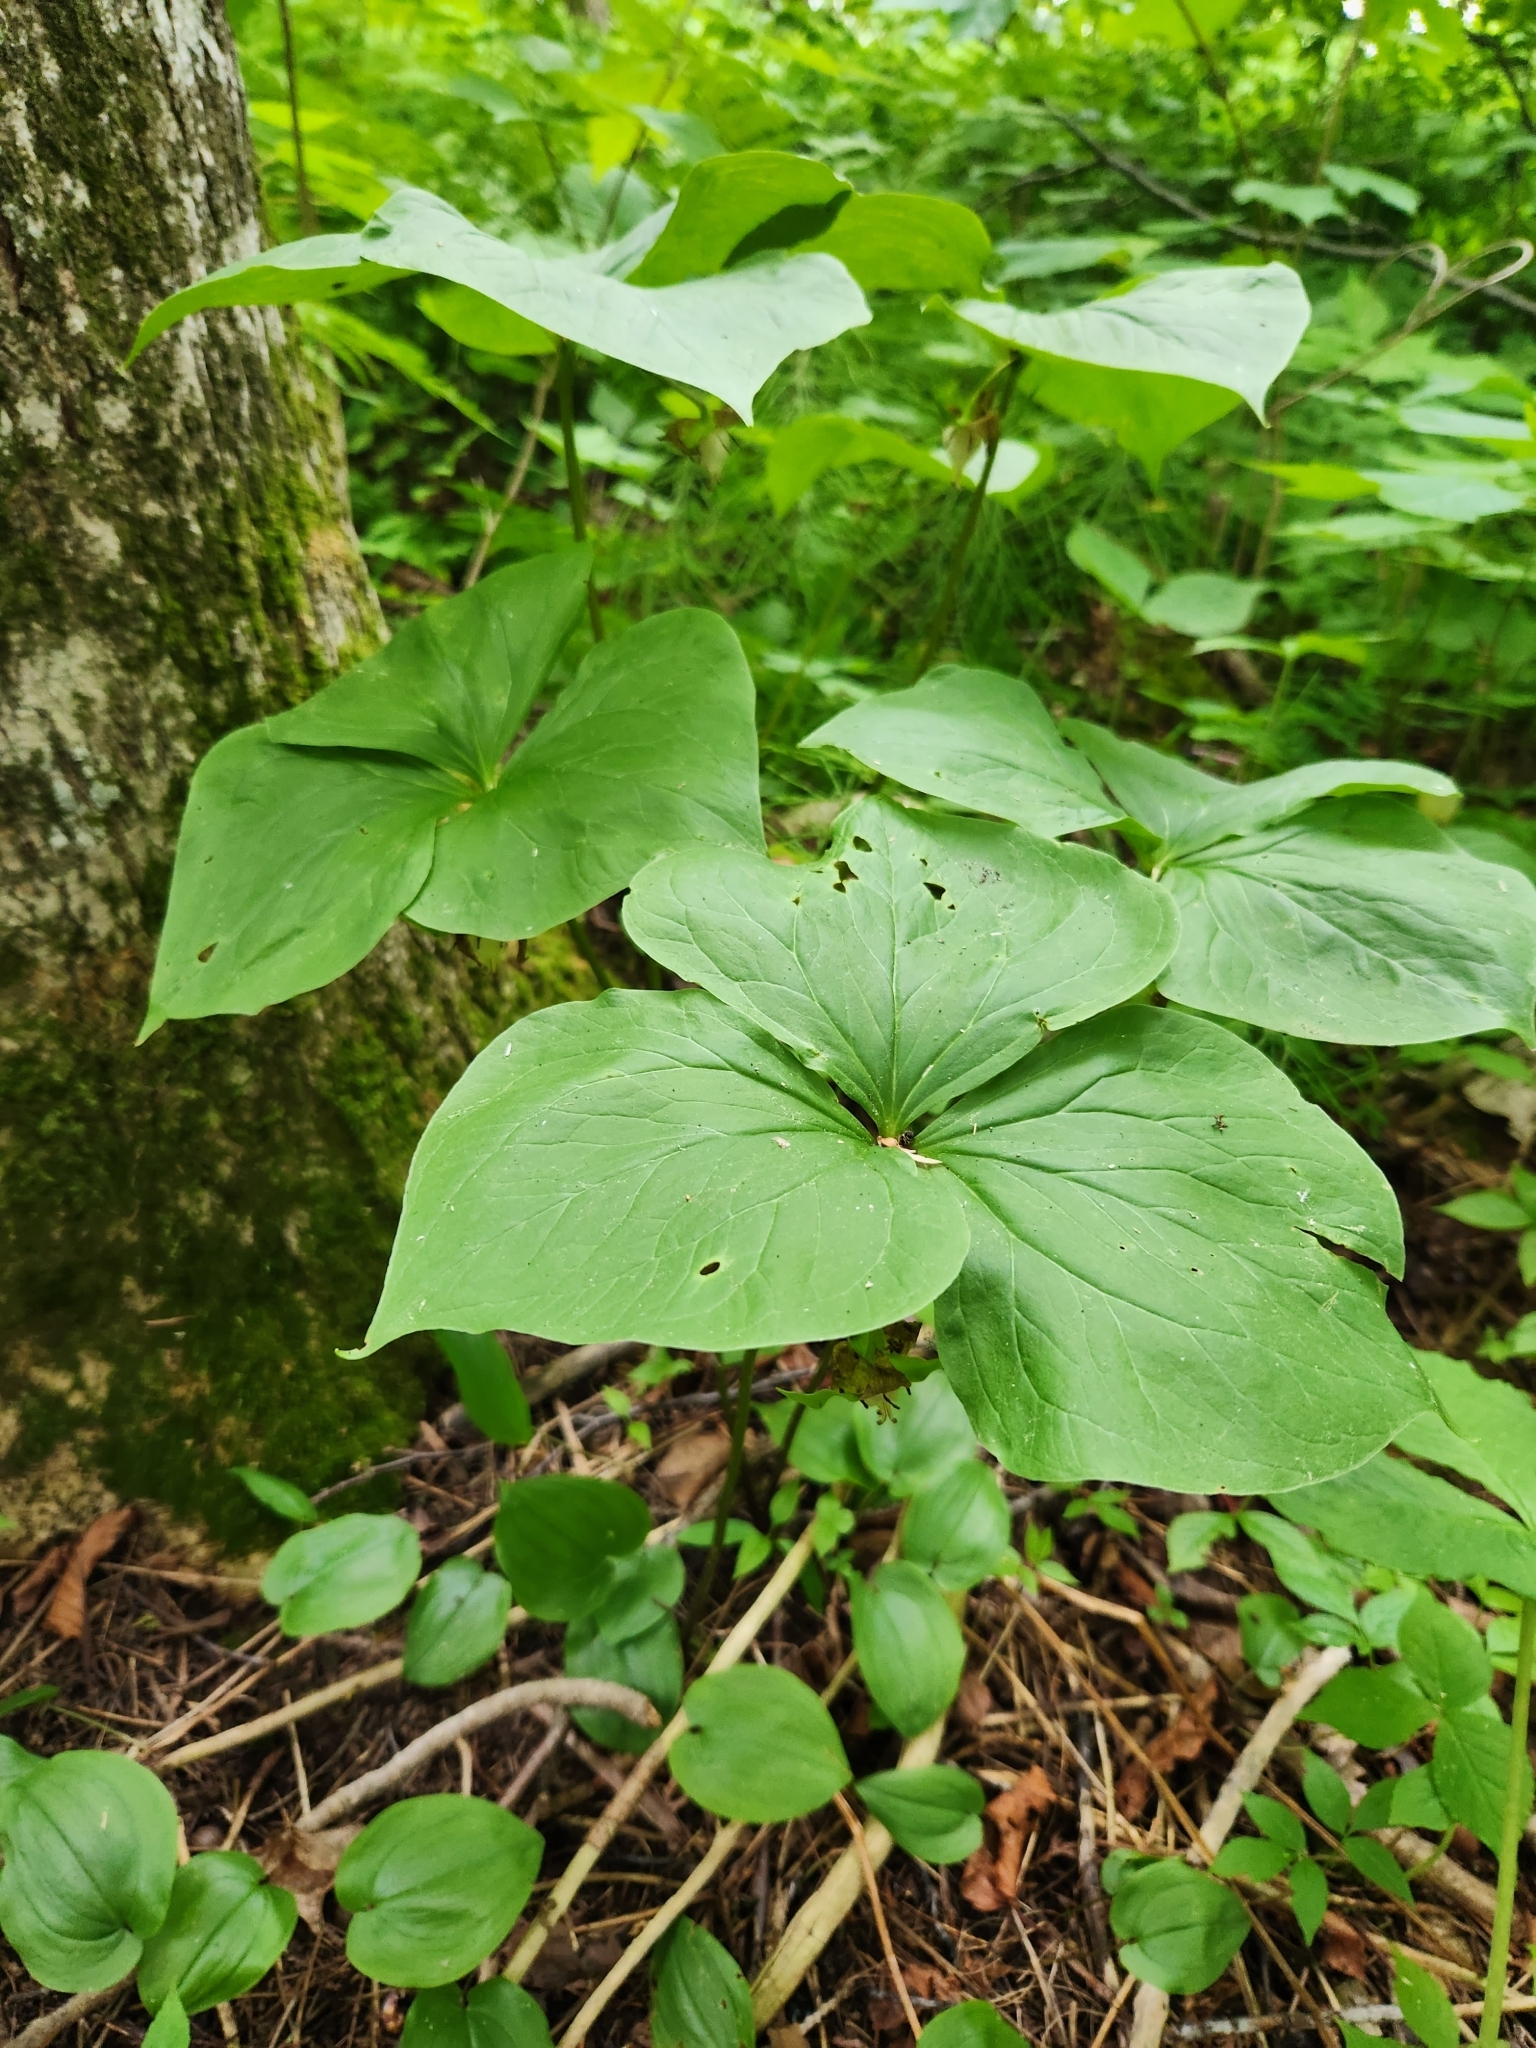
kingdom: Plantae
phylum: Tracheophyta
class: Liliopsida
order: Liliales
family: Melanthiaceae
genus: Trillium
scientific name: Trillium cernuum
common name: Nodding trillium
